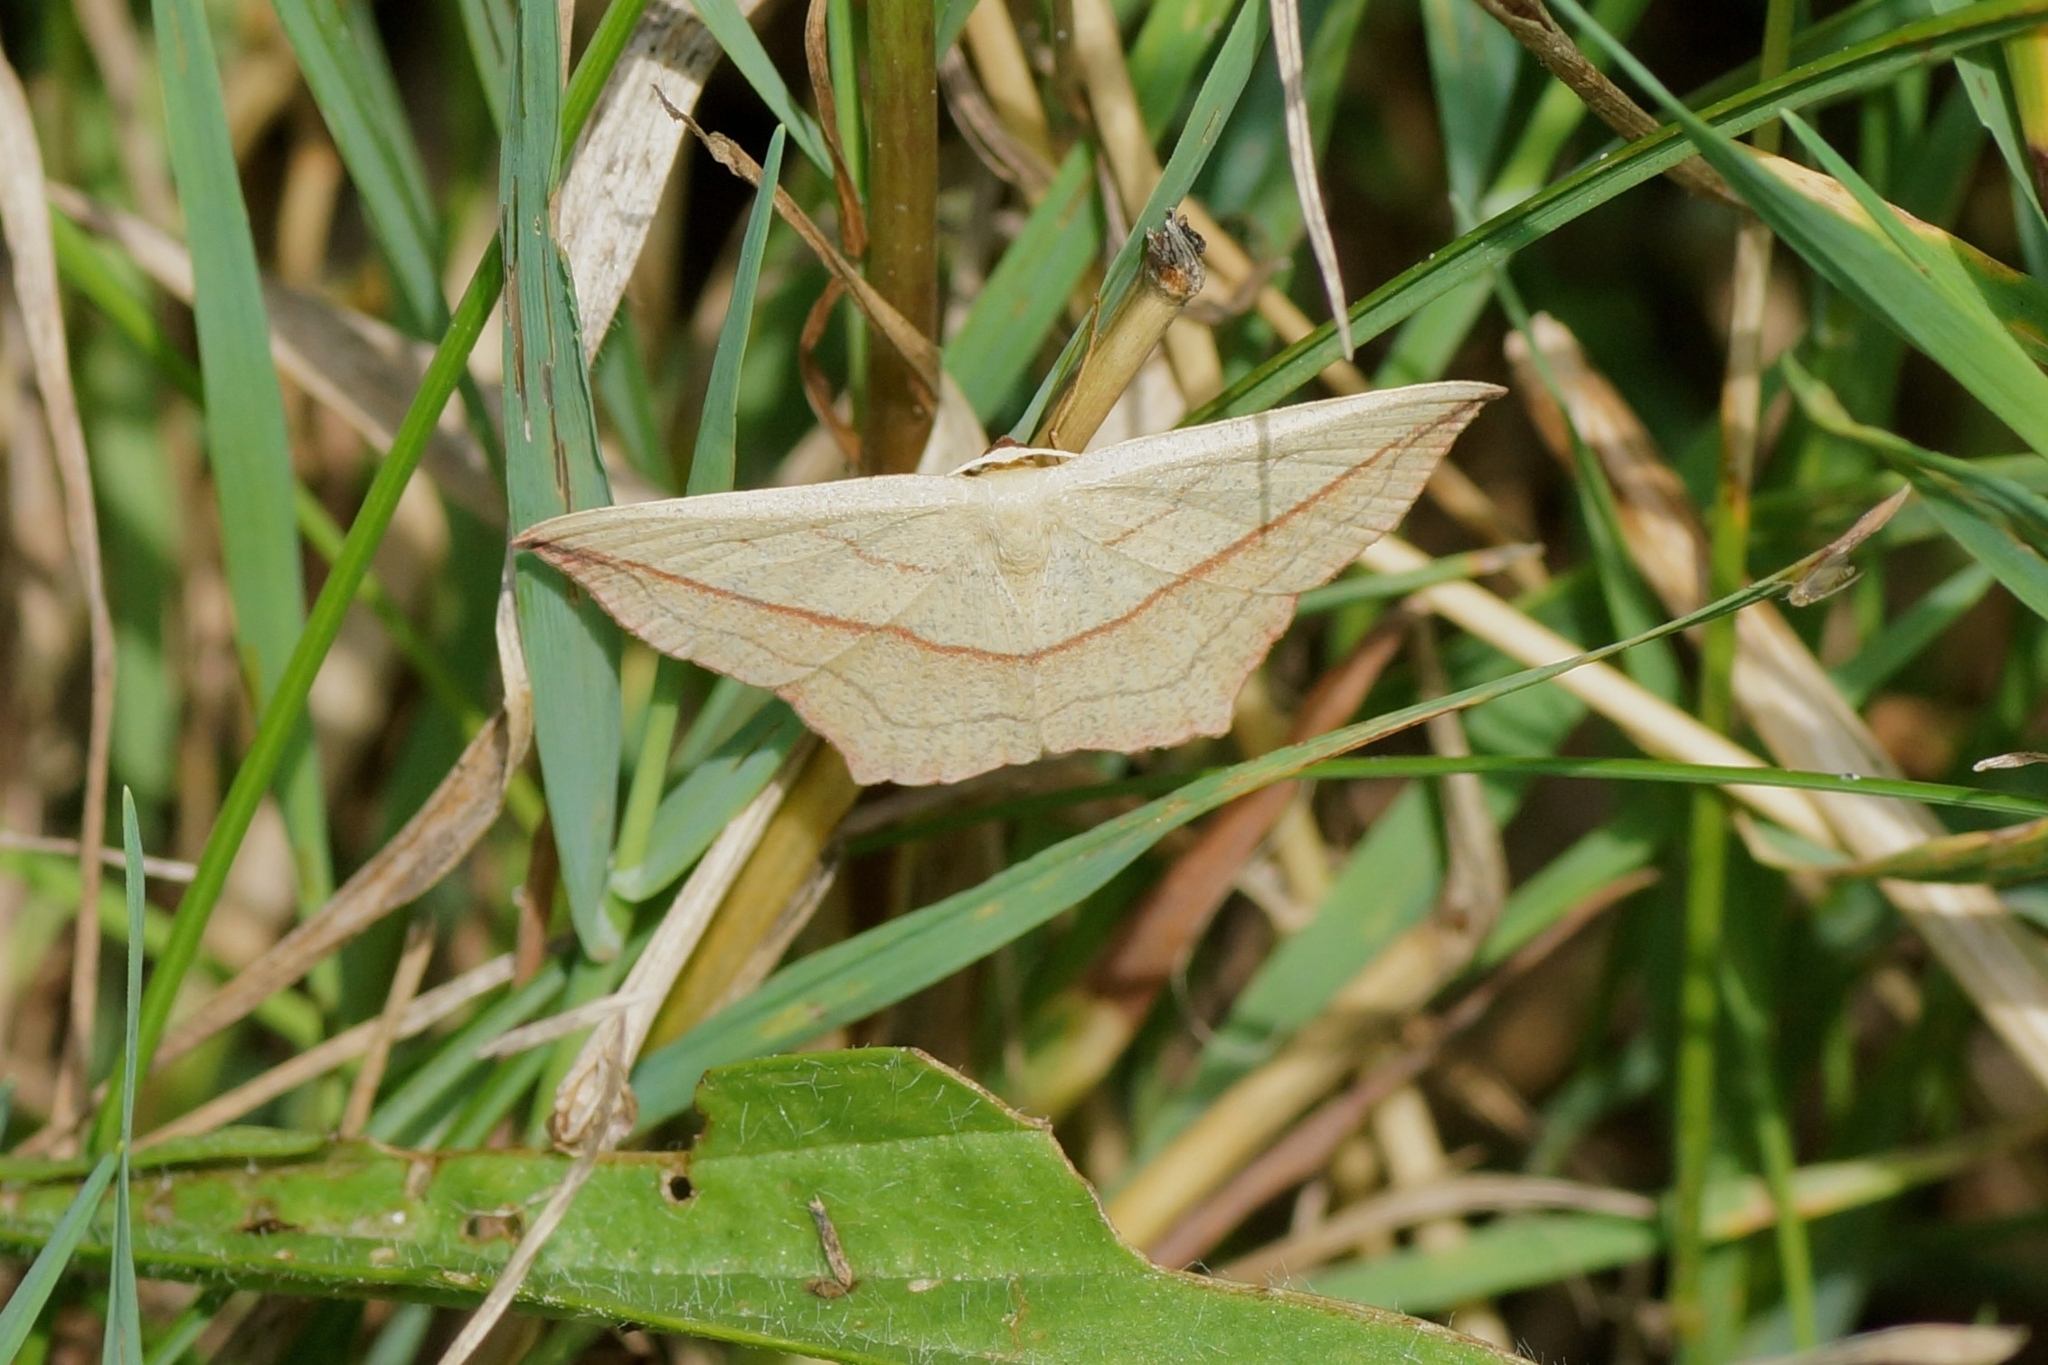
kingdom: Animalia
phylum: Arthropoda
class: Insecta
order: Lepidoptera
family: Geometridae
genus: Timandra
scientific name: Timandra comae
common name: Blood-vein
